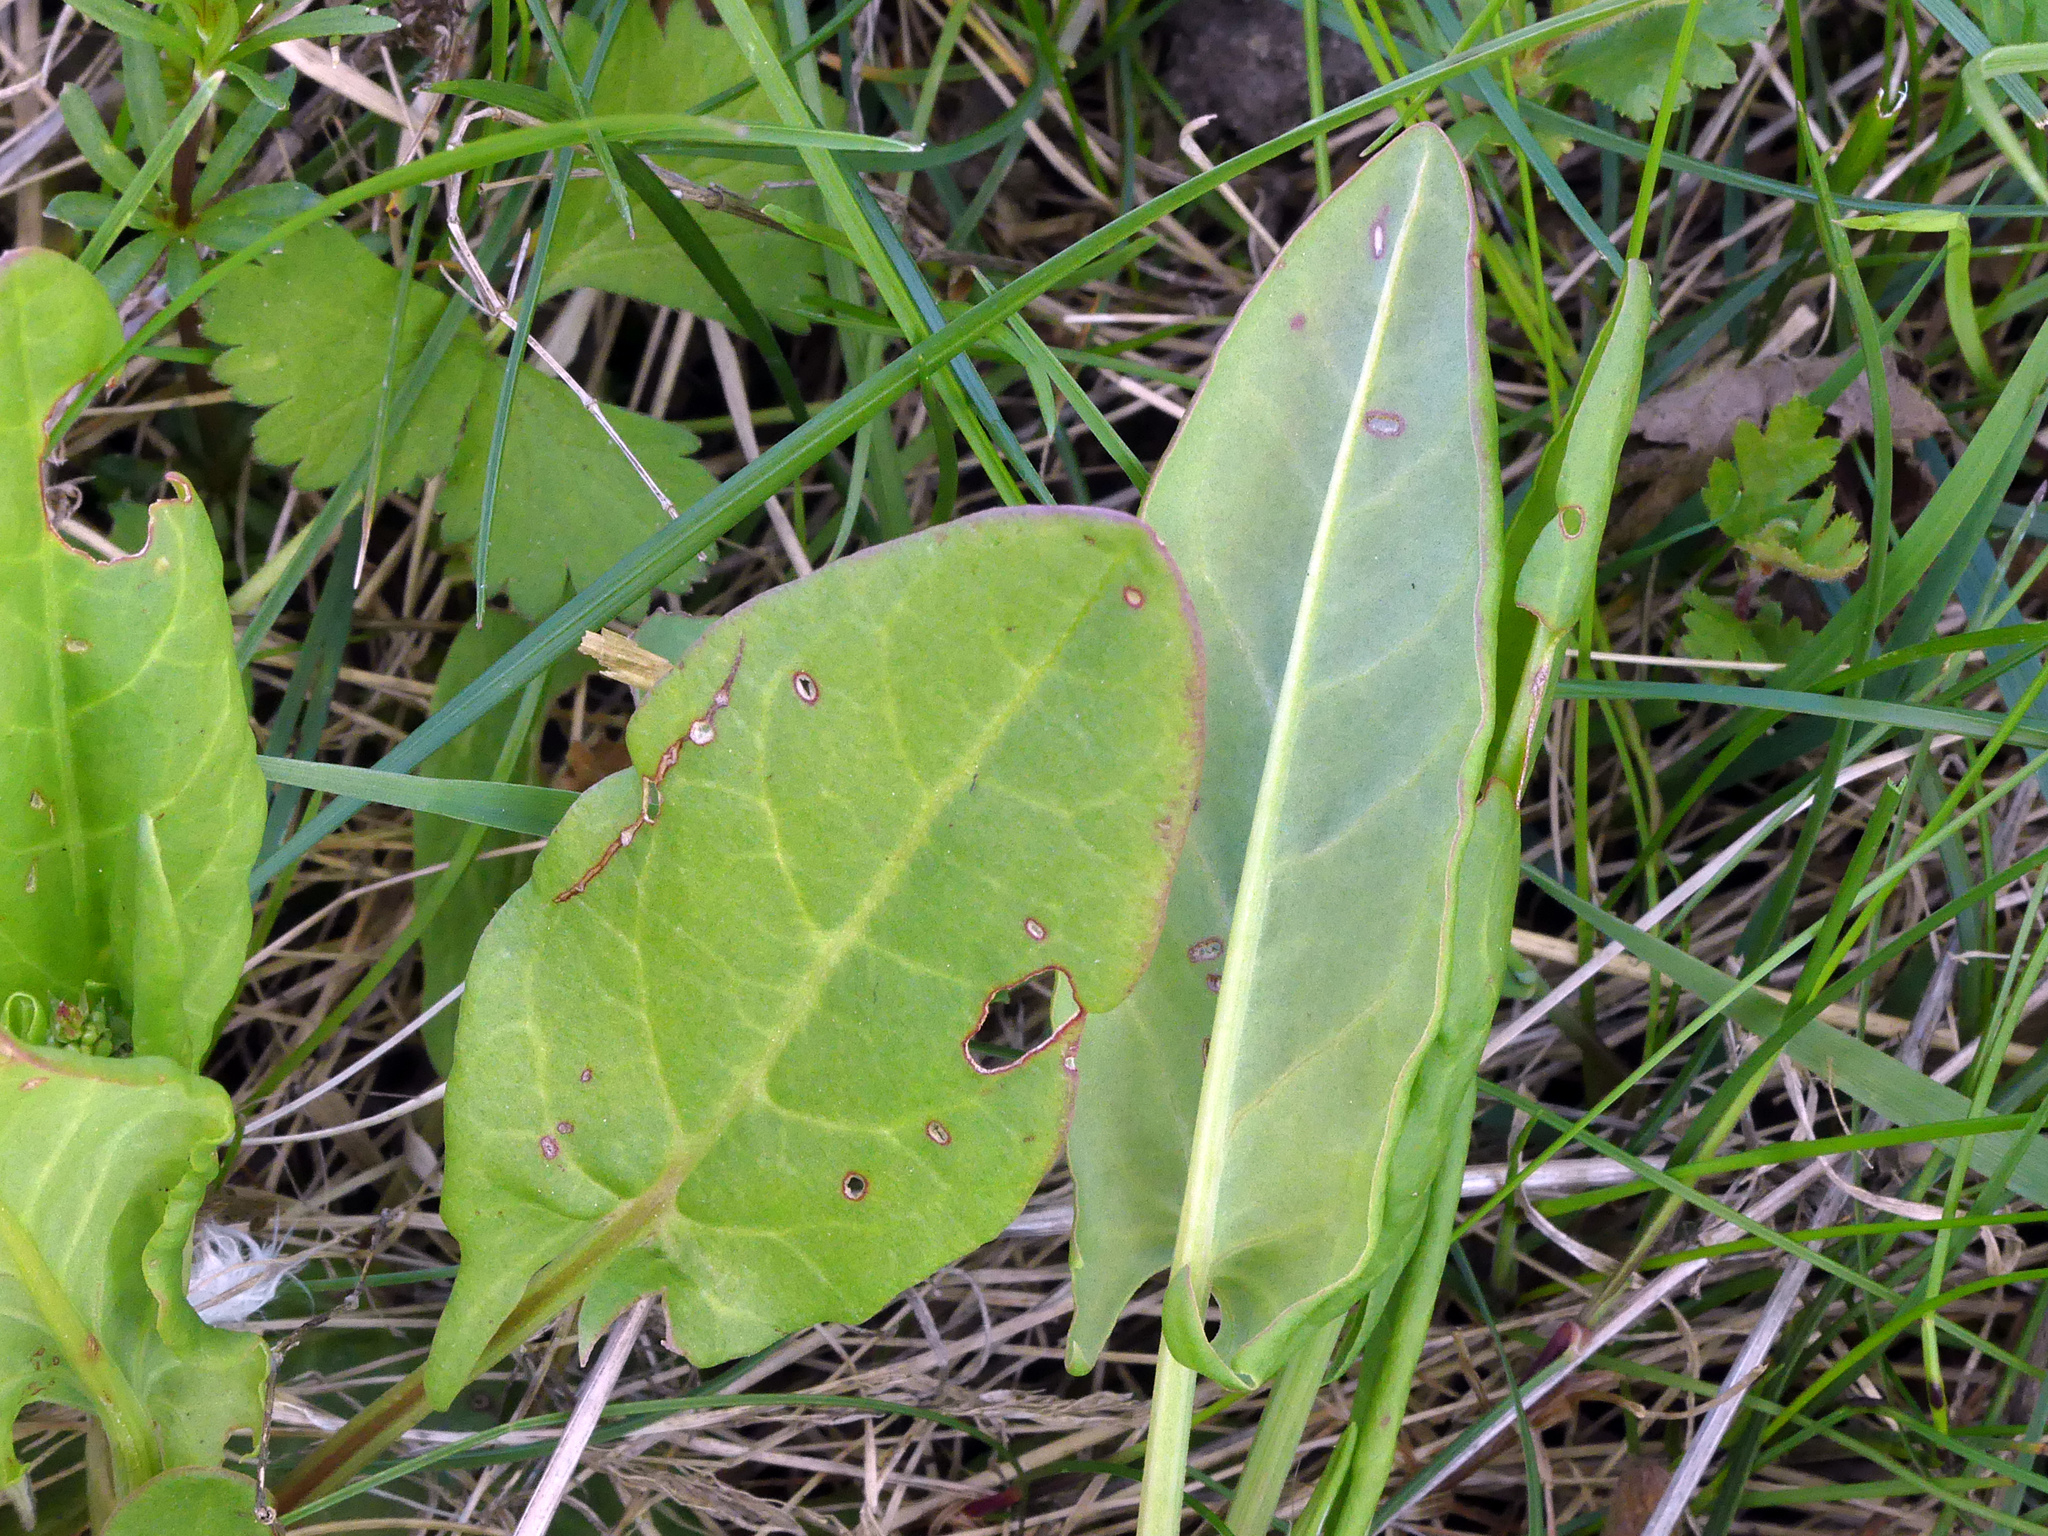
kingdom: Plantae
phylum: Tracheophyta
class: Magnoliopsida
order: Caryophyllales
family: Polygonaceae
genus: Rumex
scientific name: Rumex acetosa
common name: Garden sorrel
